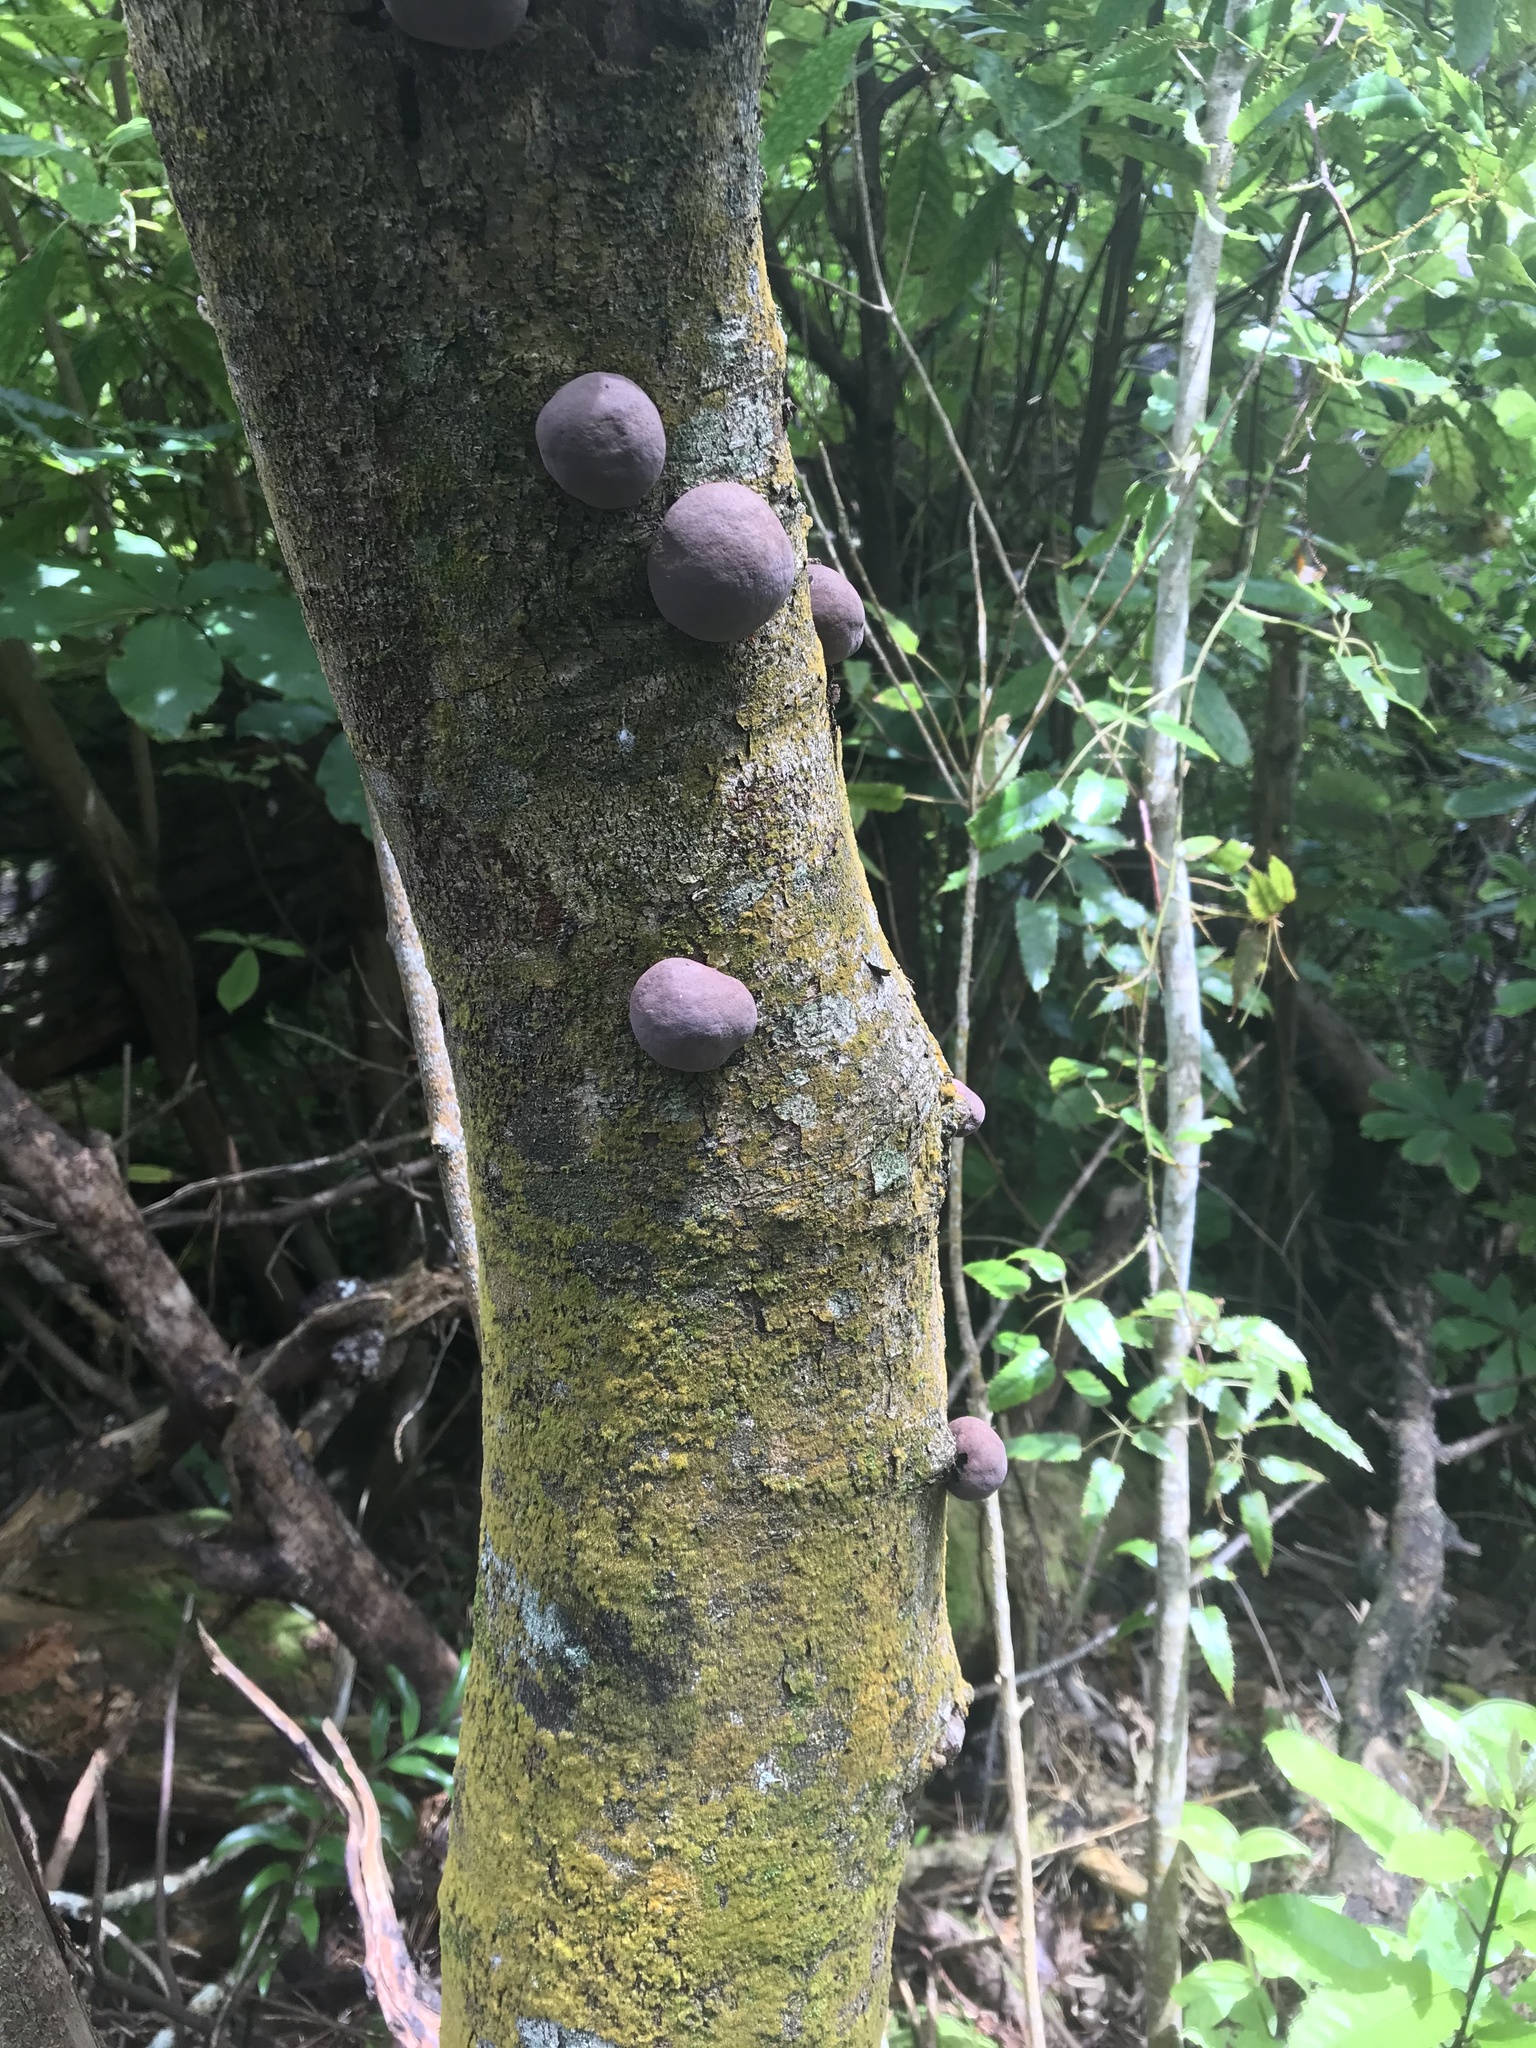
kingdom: Fungi
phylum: Ascomycota
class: Sordariomycetes
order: Xylariales
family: Hypoxylaceae
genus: Daldinia
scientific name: Daldinia
